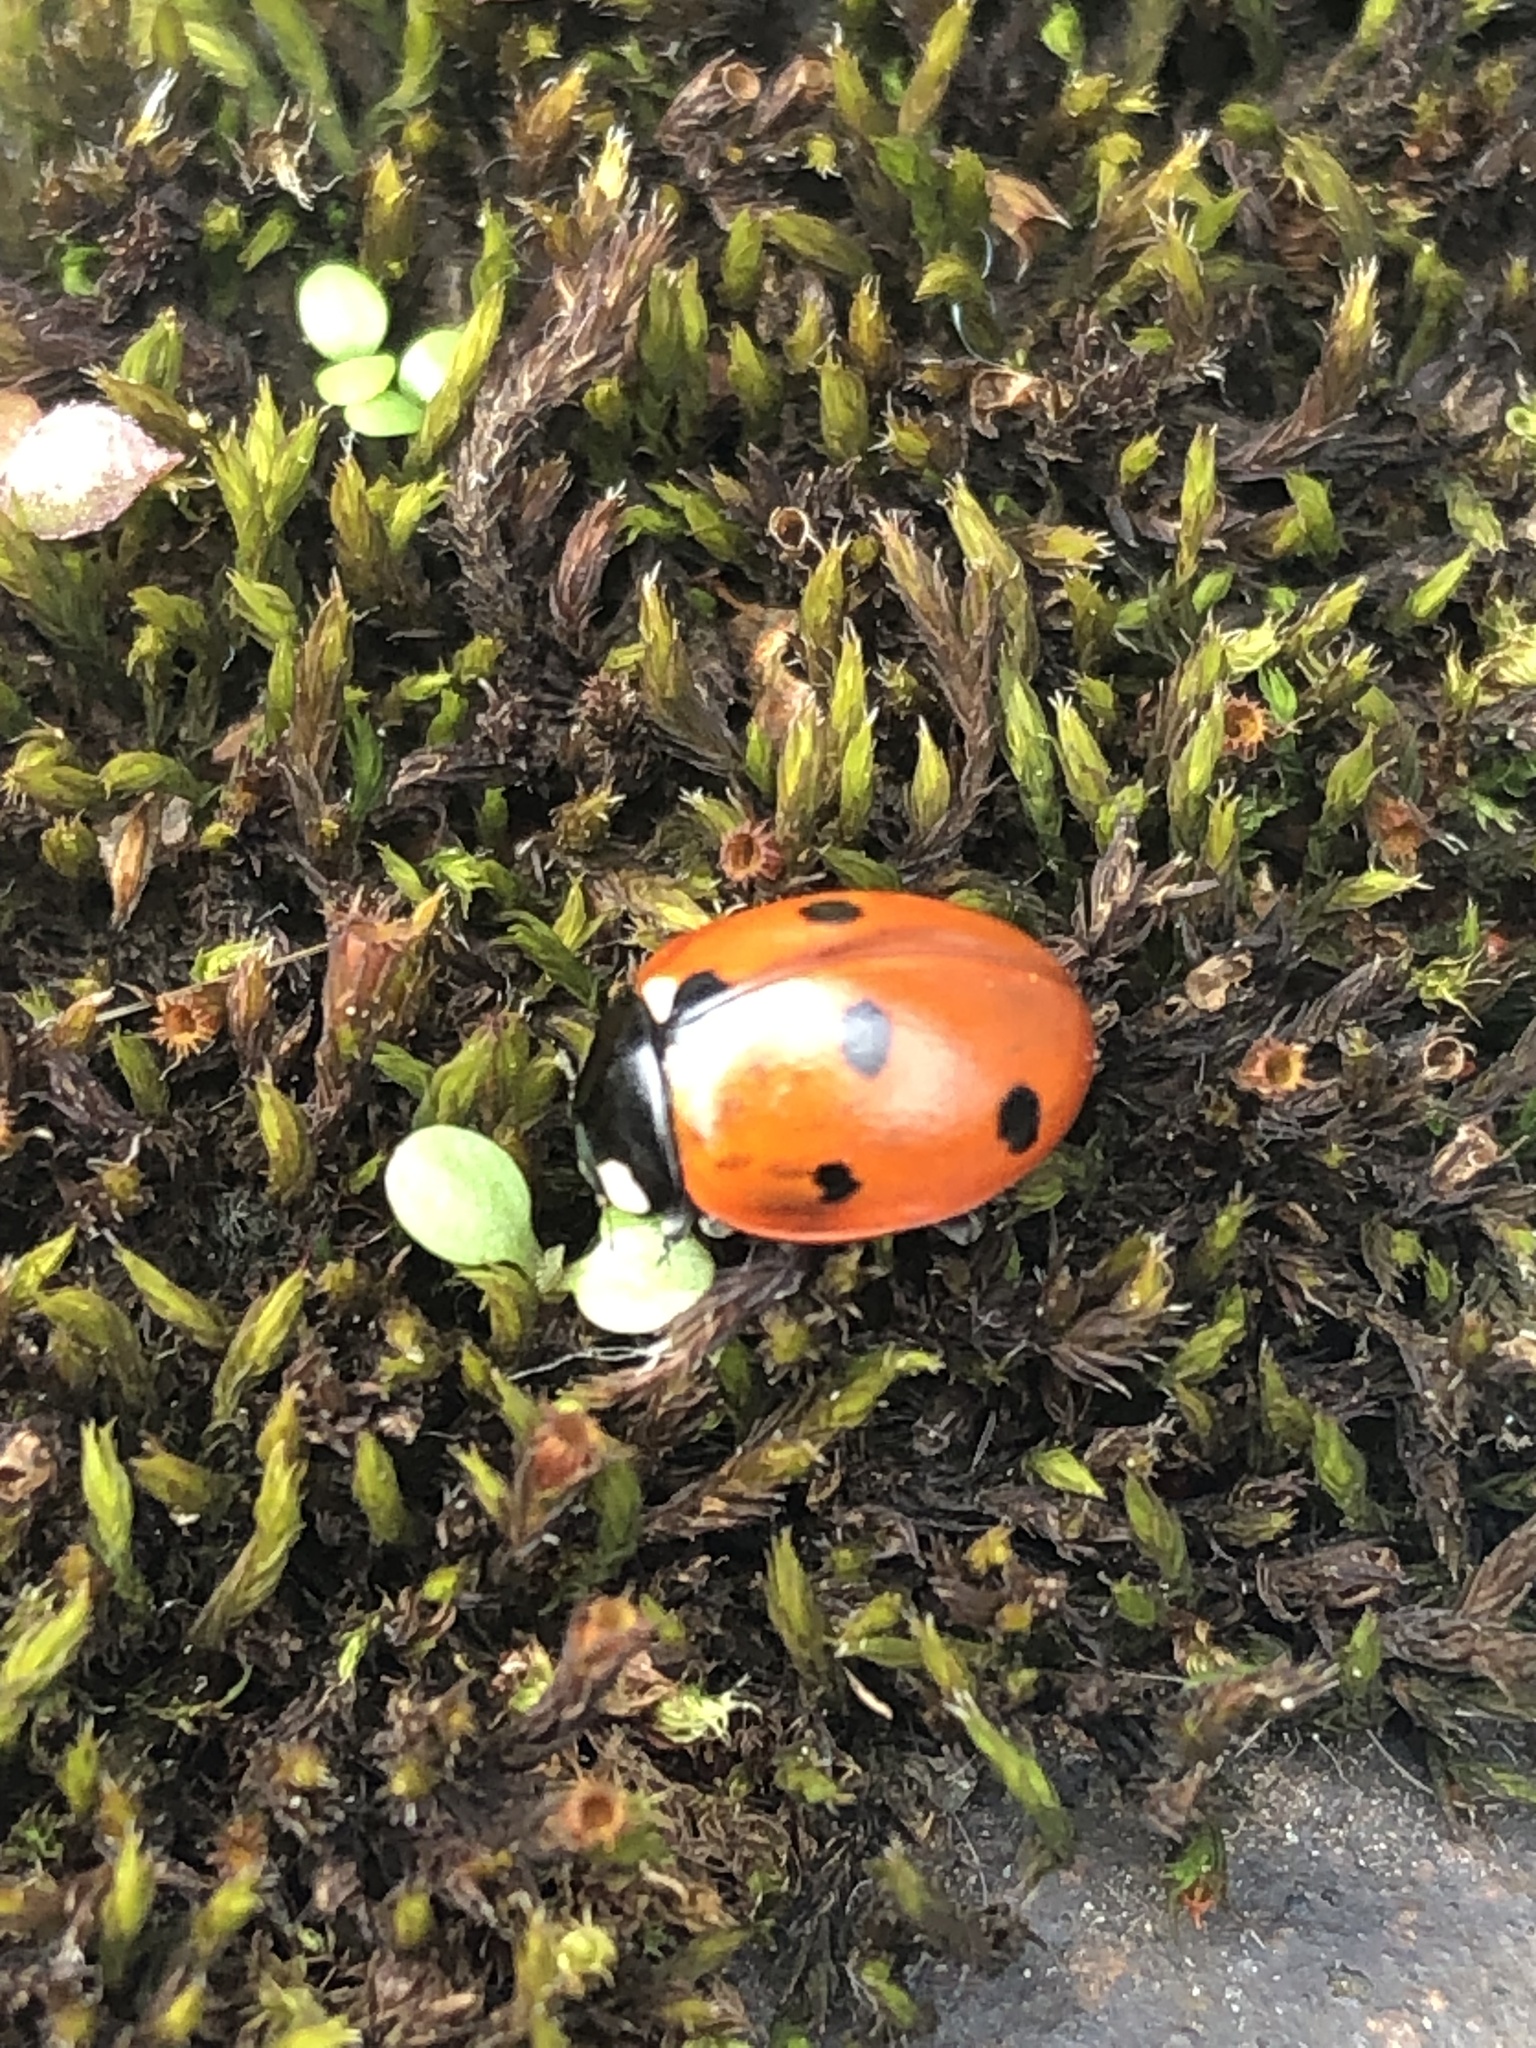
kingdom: Animalia
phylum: Arthropoda
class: Insecta
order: Coleoptera
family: Coccinellidae
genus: Coccinella
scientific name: Coccinella septempunctata
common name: Sevenspotted lady beetle
